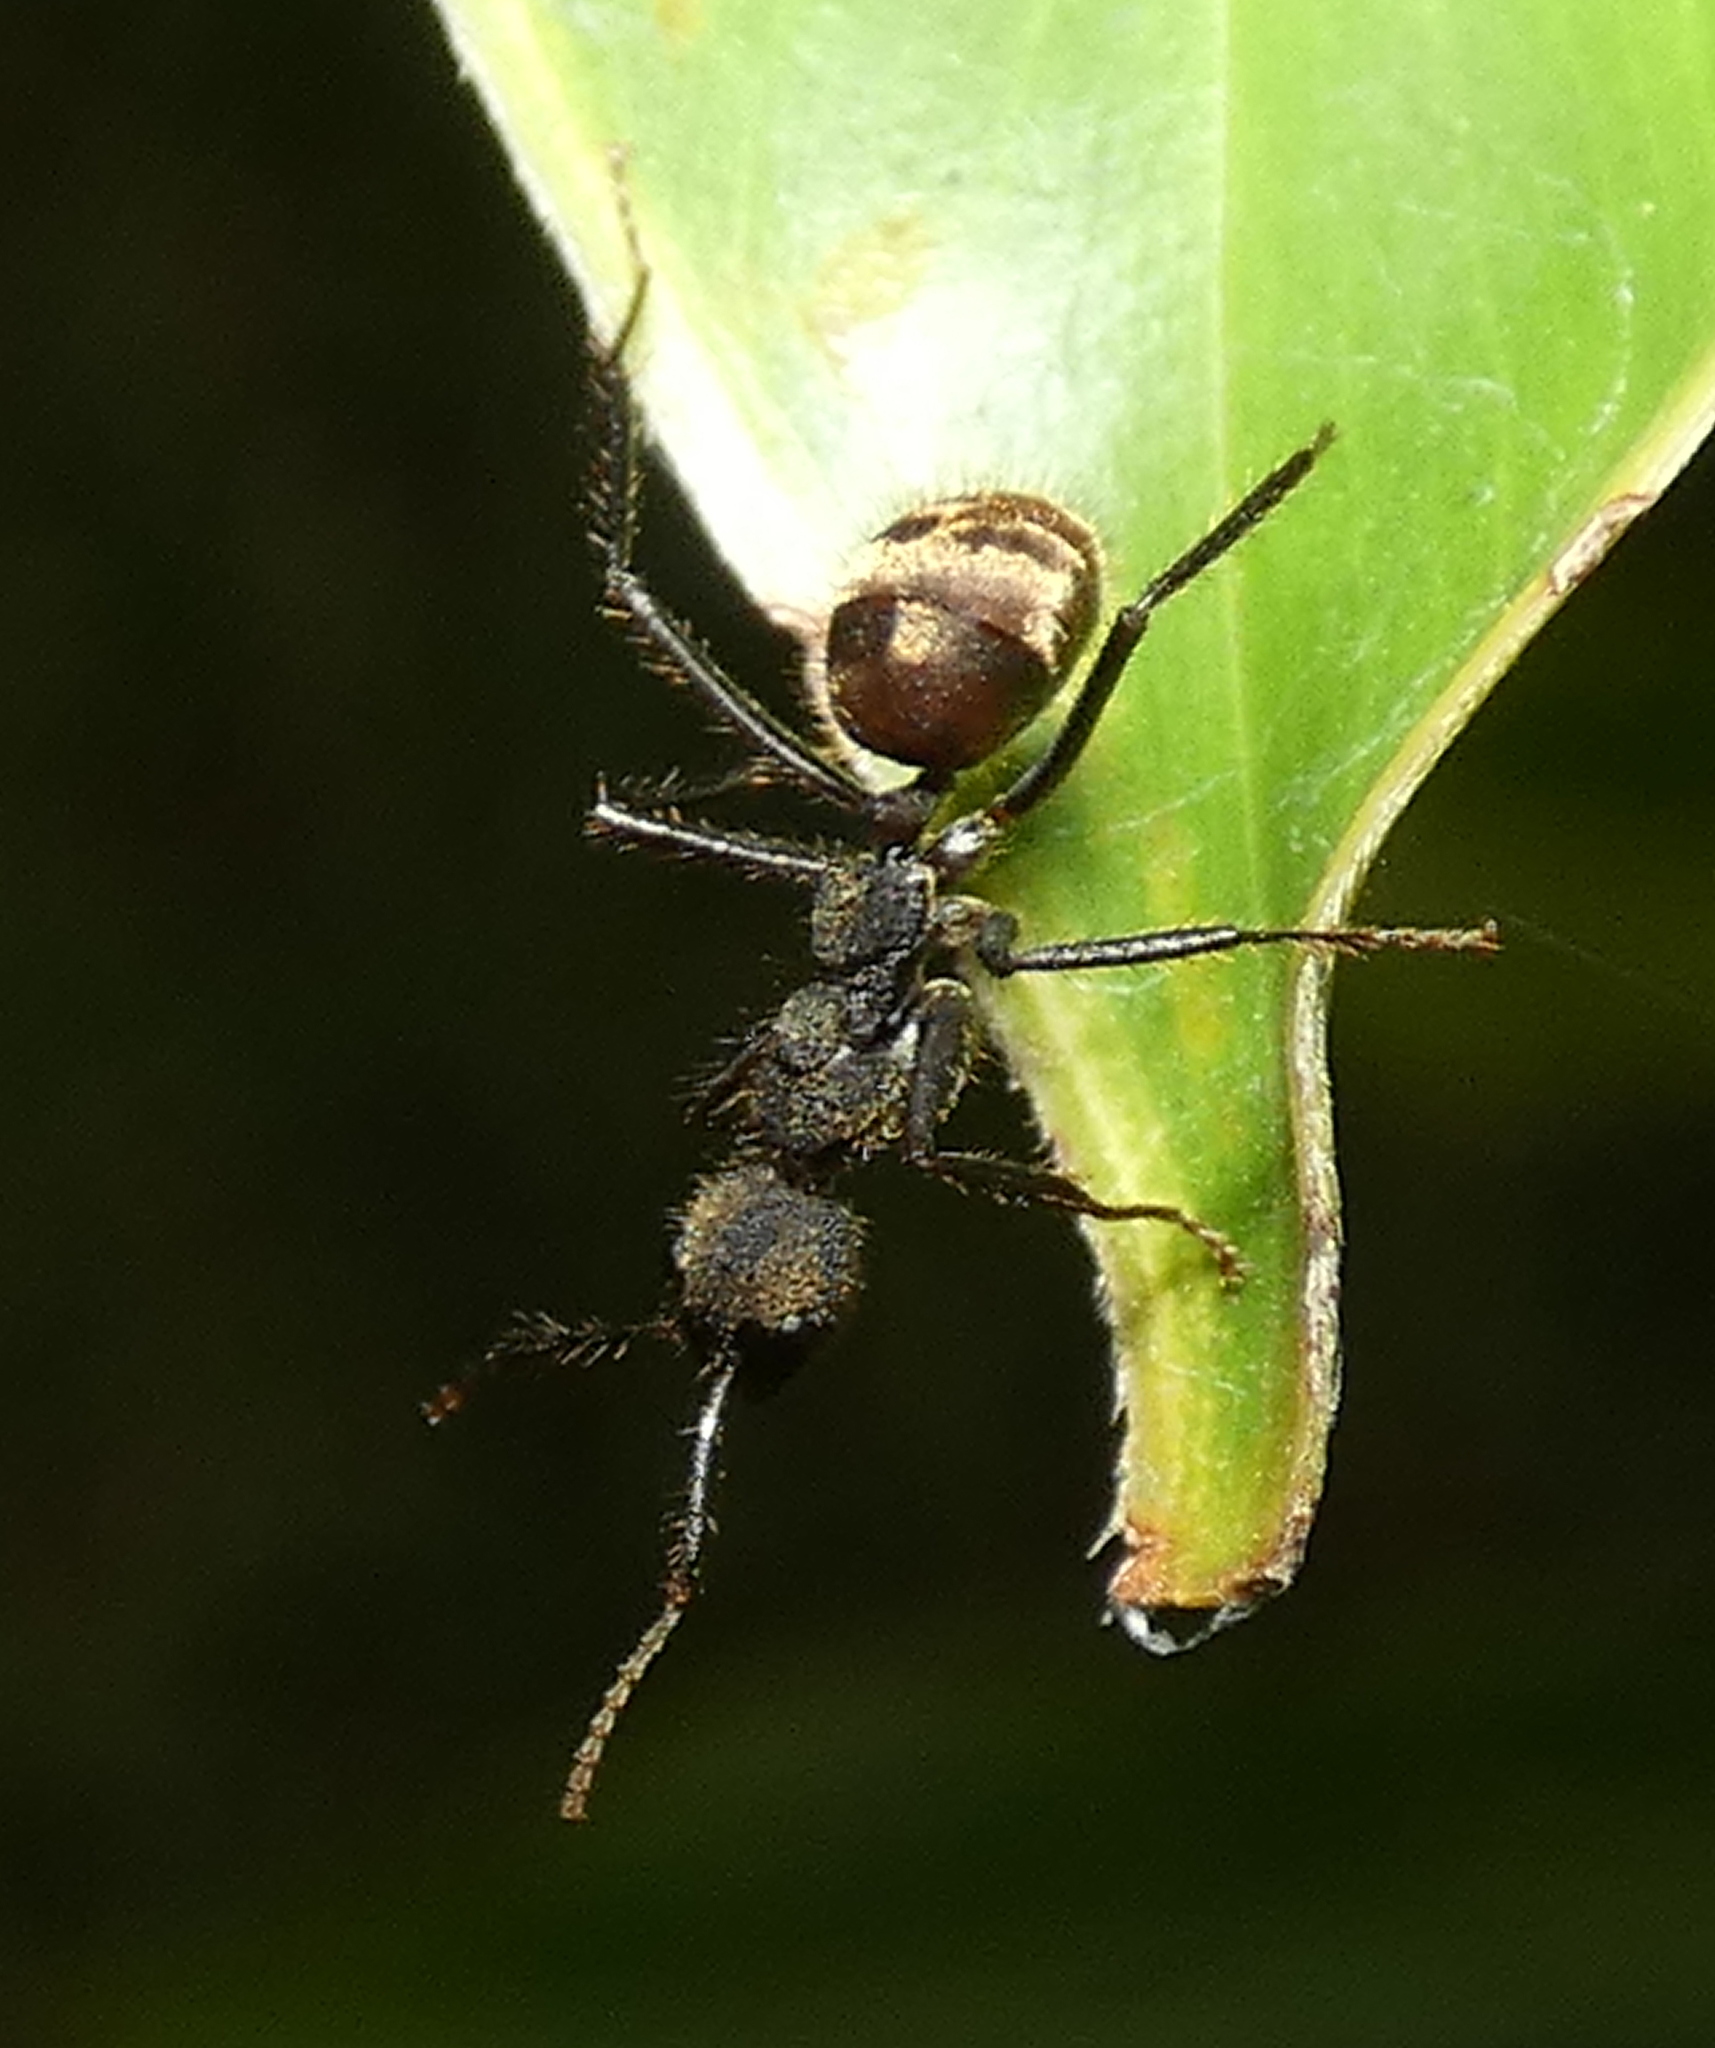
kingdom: Animalia
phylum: Arthropoda
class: Insecta
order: Hymenoptera
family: Formicidae
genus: Dolichoderus
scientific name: Dolichoderus bidens
